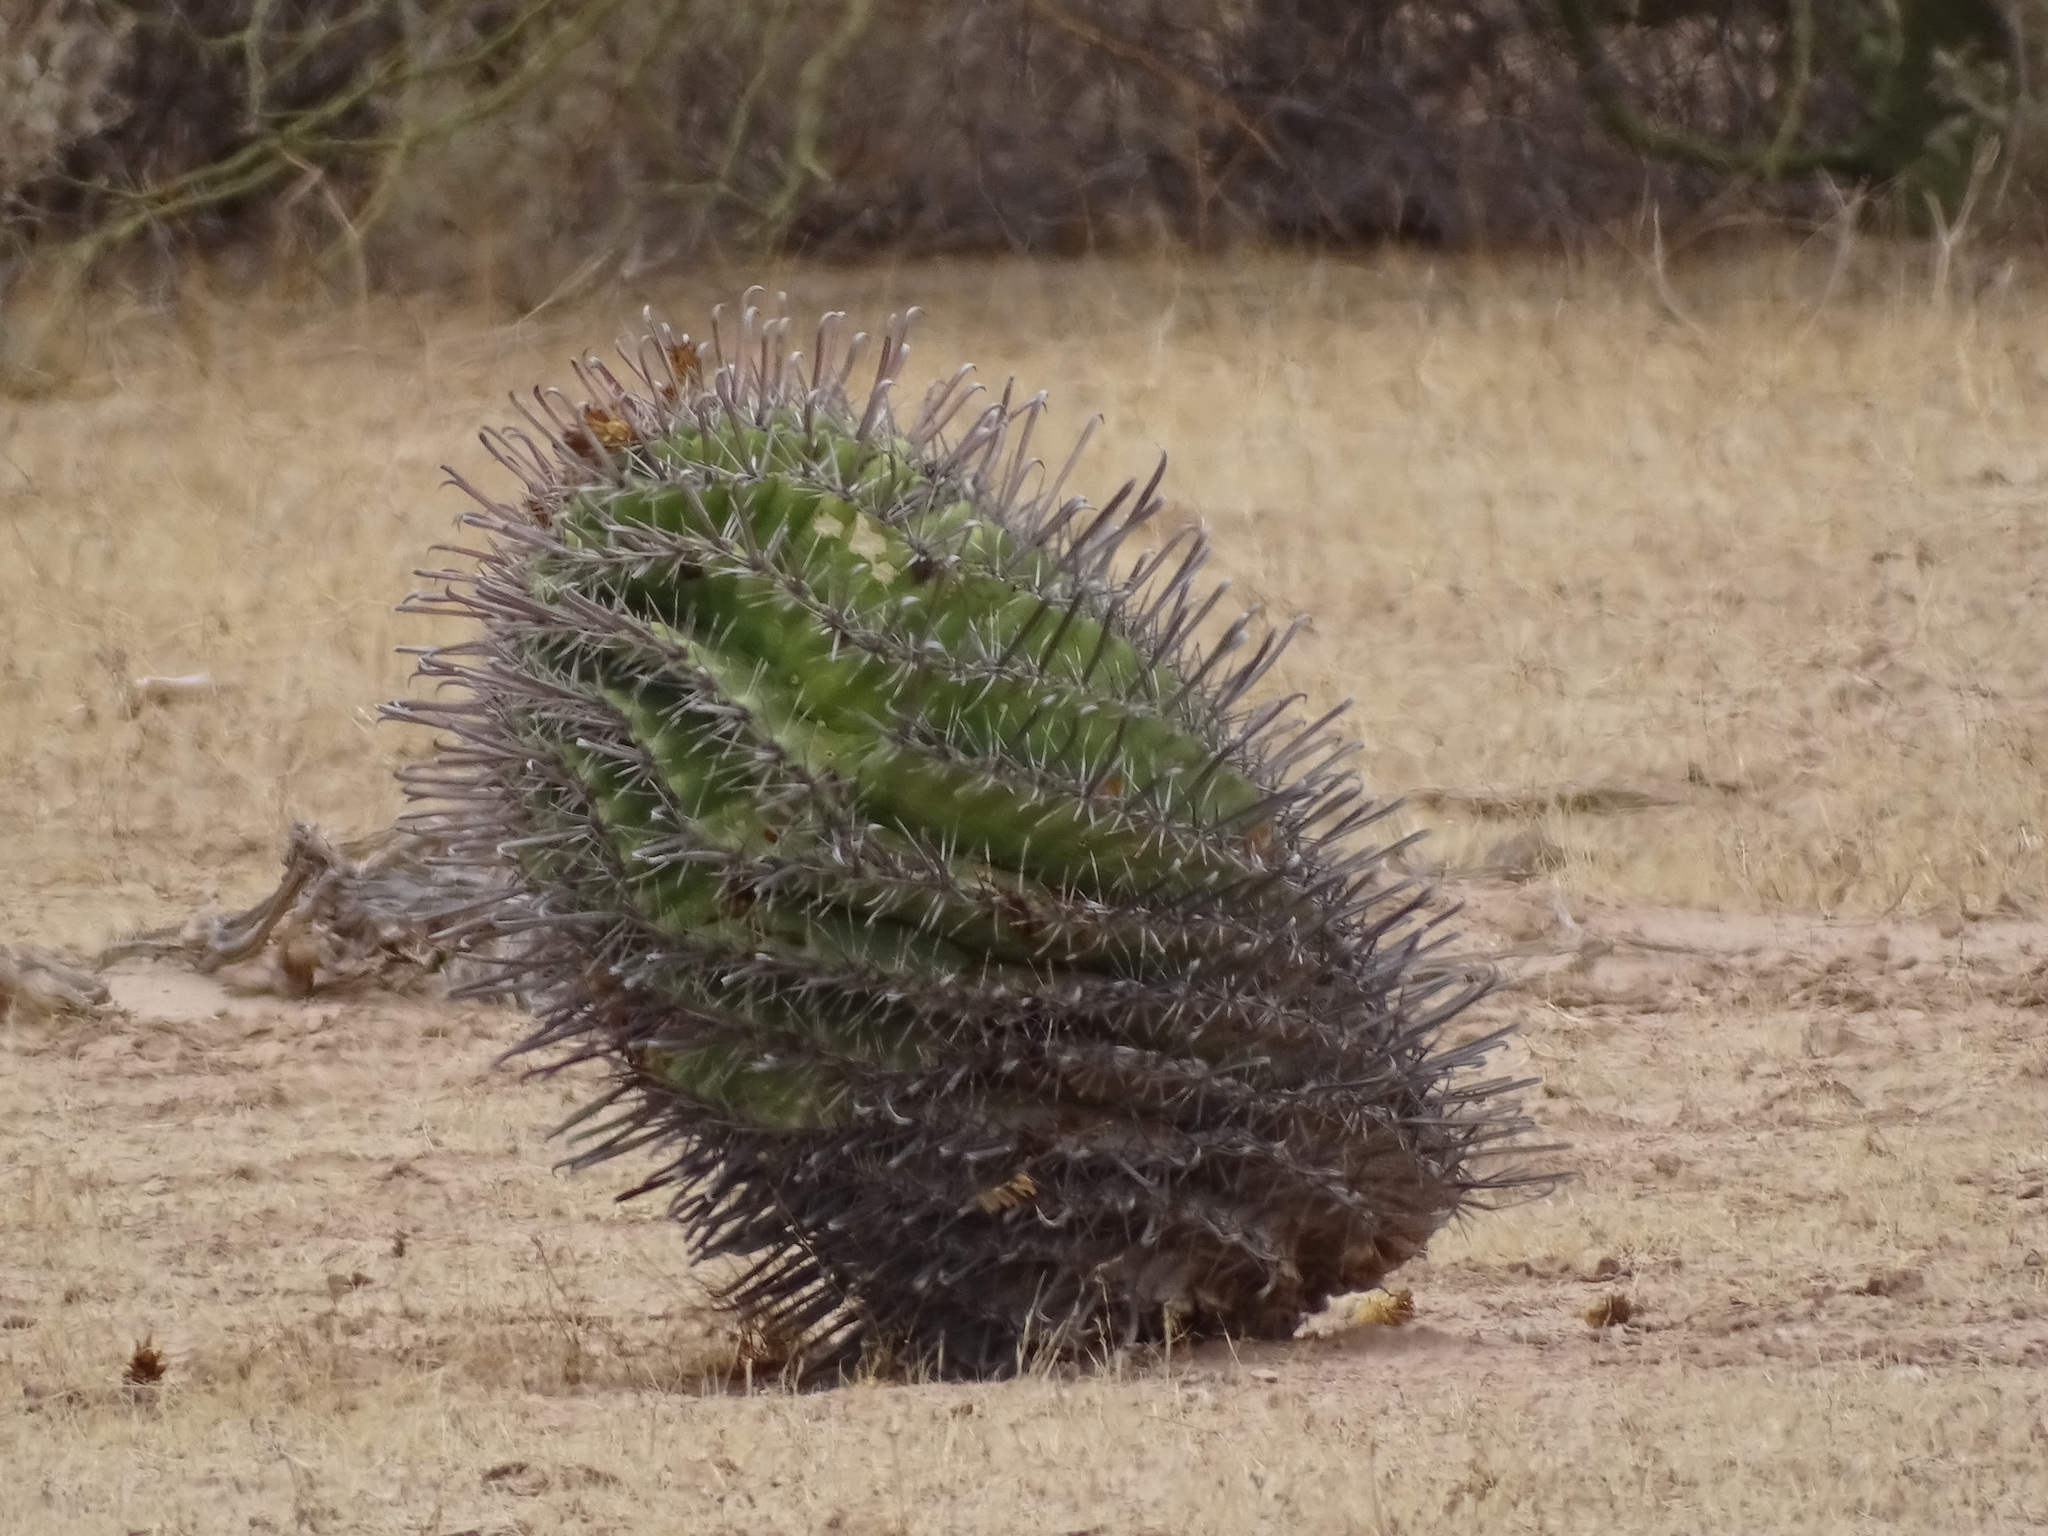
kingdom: Plantae
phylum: Tracheophyta
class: Magnoliopsida
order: Caryophyllales
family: Cactaceae
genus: Ferocactus
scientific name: Ferocactus wislizeni
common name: Candy barrel cactus
